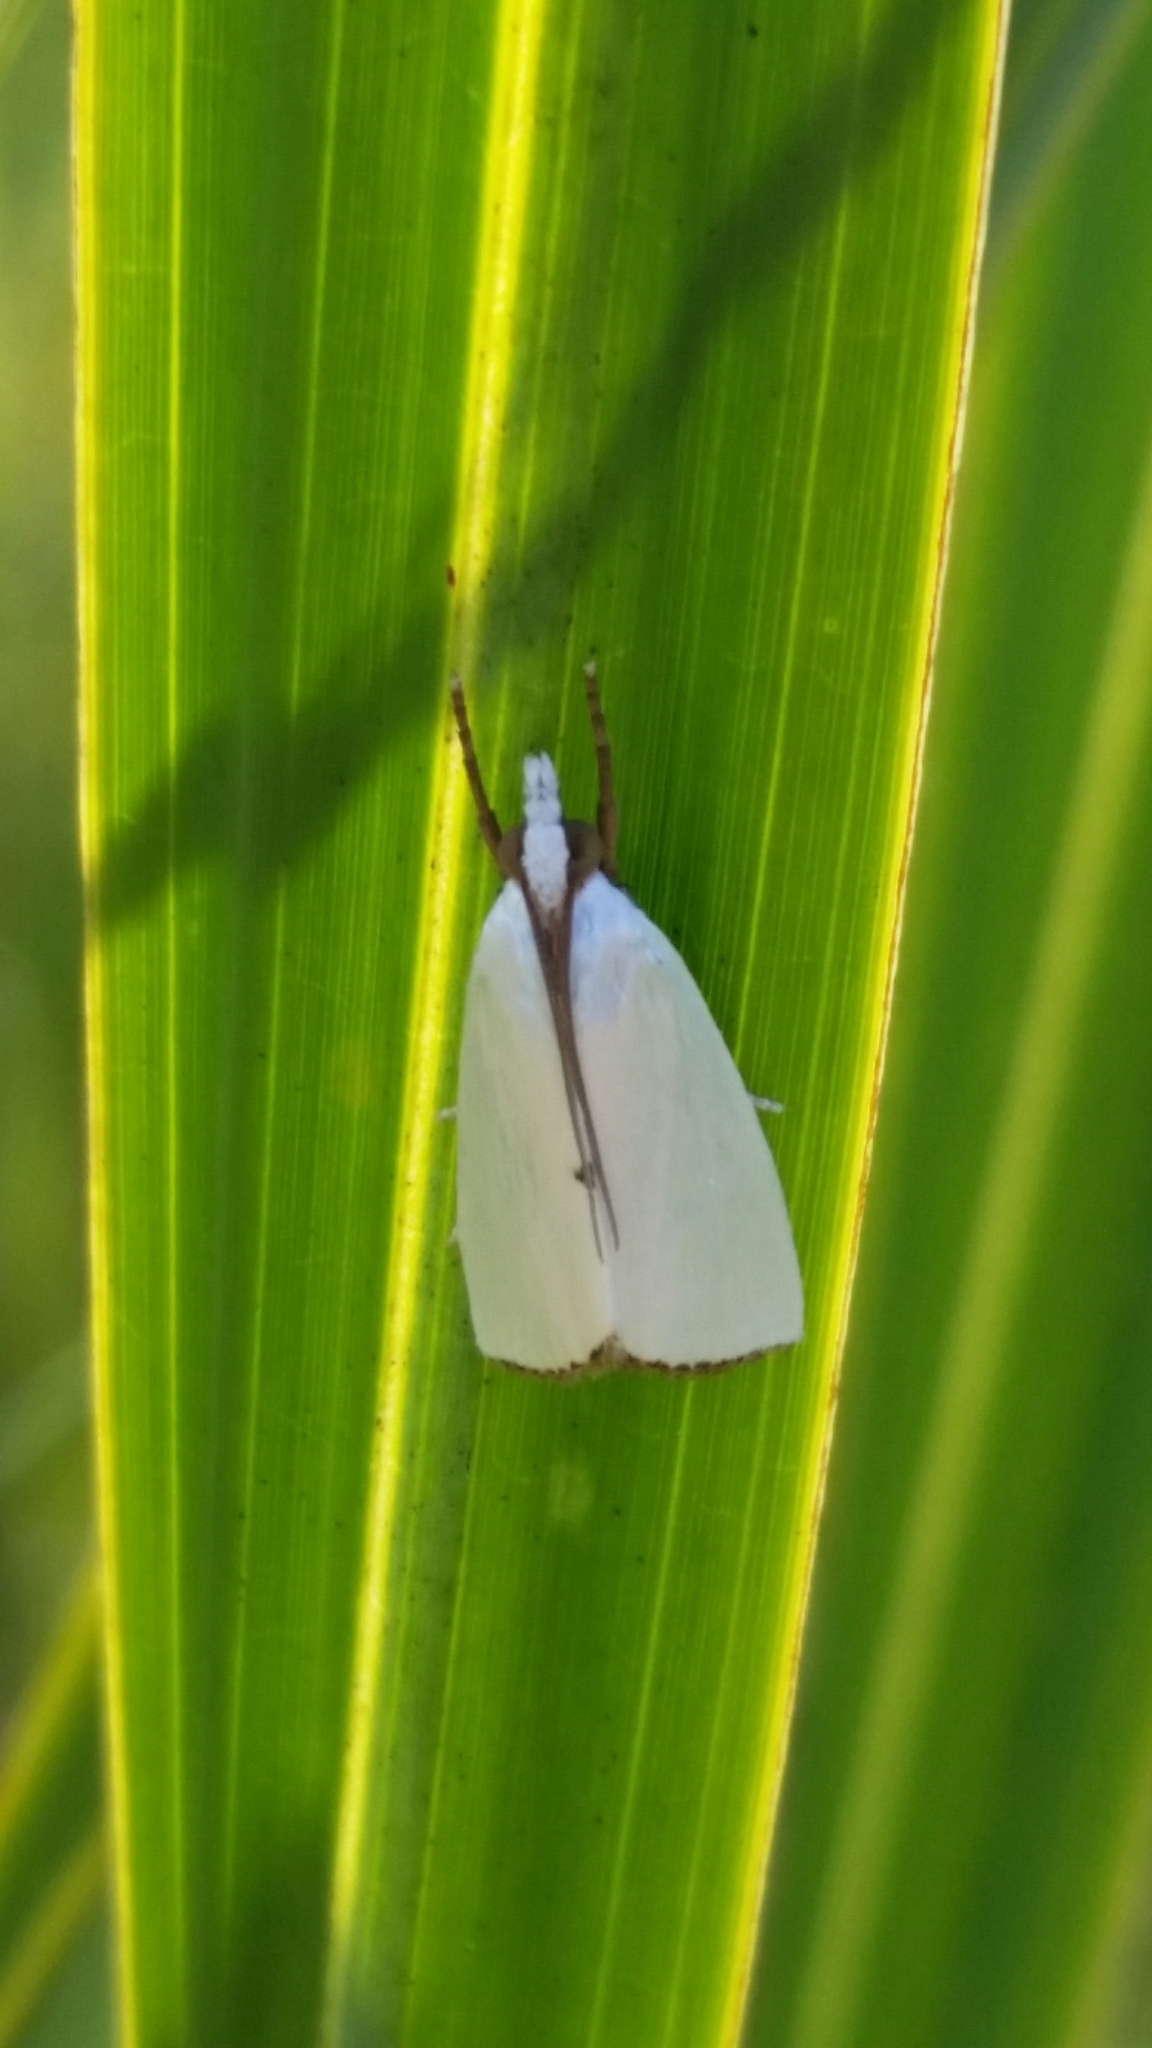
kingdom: Animalia
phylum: Arthropoda
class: Insecta
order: Lepidoptera
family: Crambidae
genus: Argyria
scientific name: Argyria nivalis
